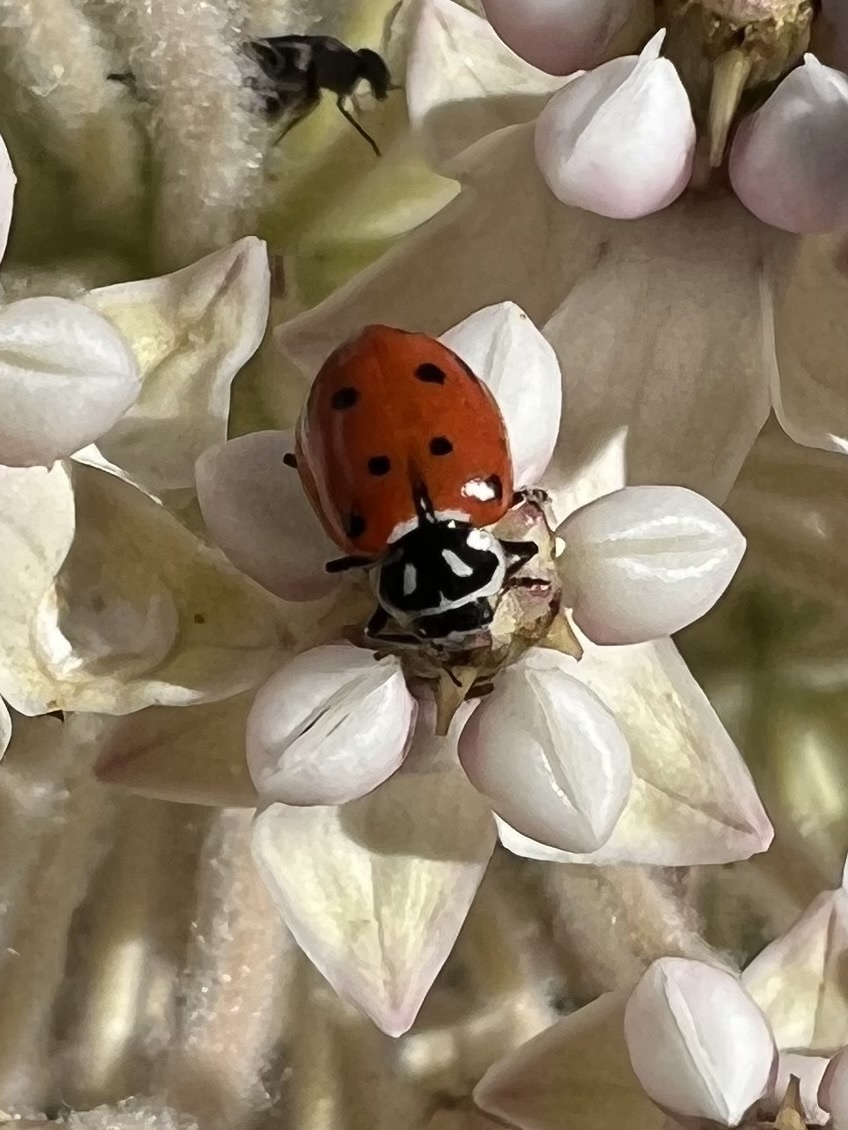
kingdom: Animalia
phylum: Arthropoda
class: Insecta
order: Coleoptera
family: Coccinellidae
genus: Hippodamia
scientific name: Hippodamia convergens
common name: Convergent lady beetle
